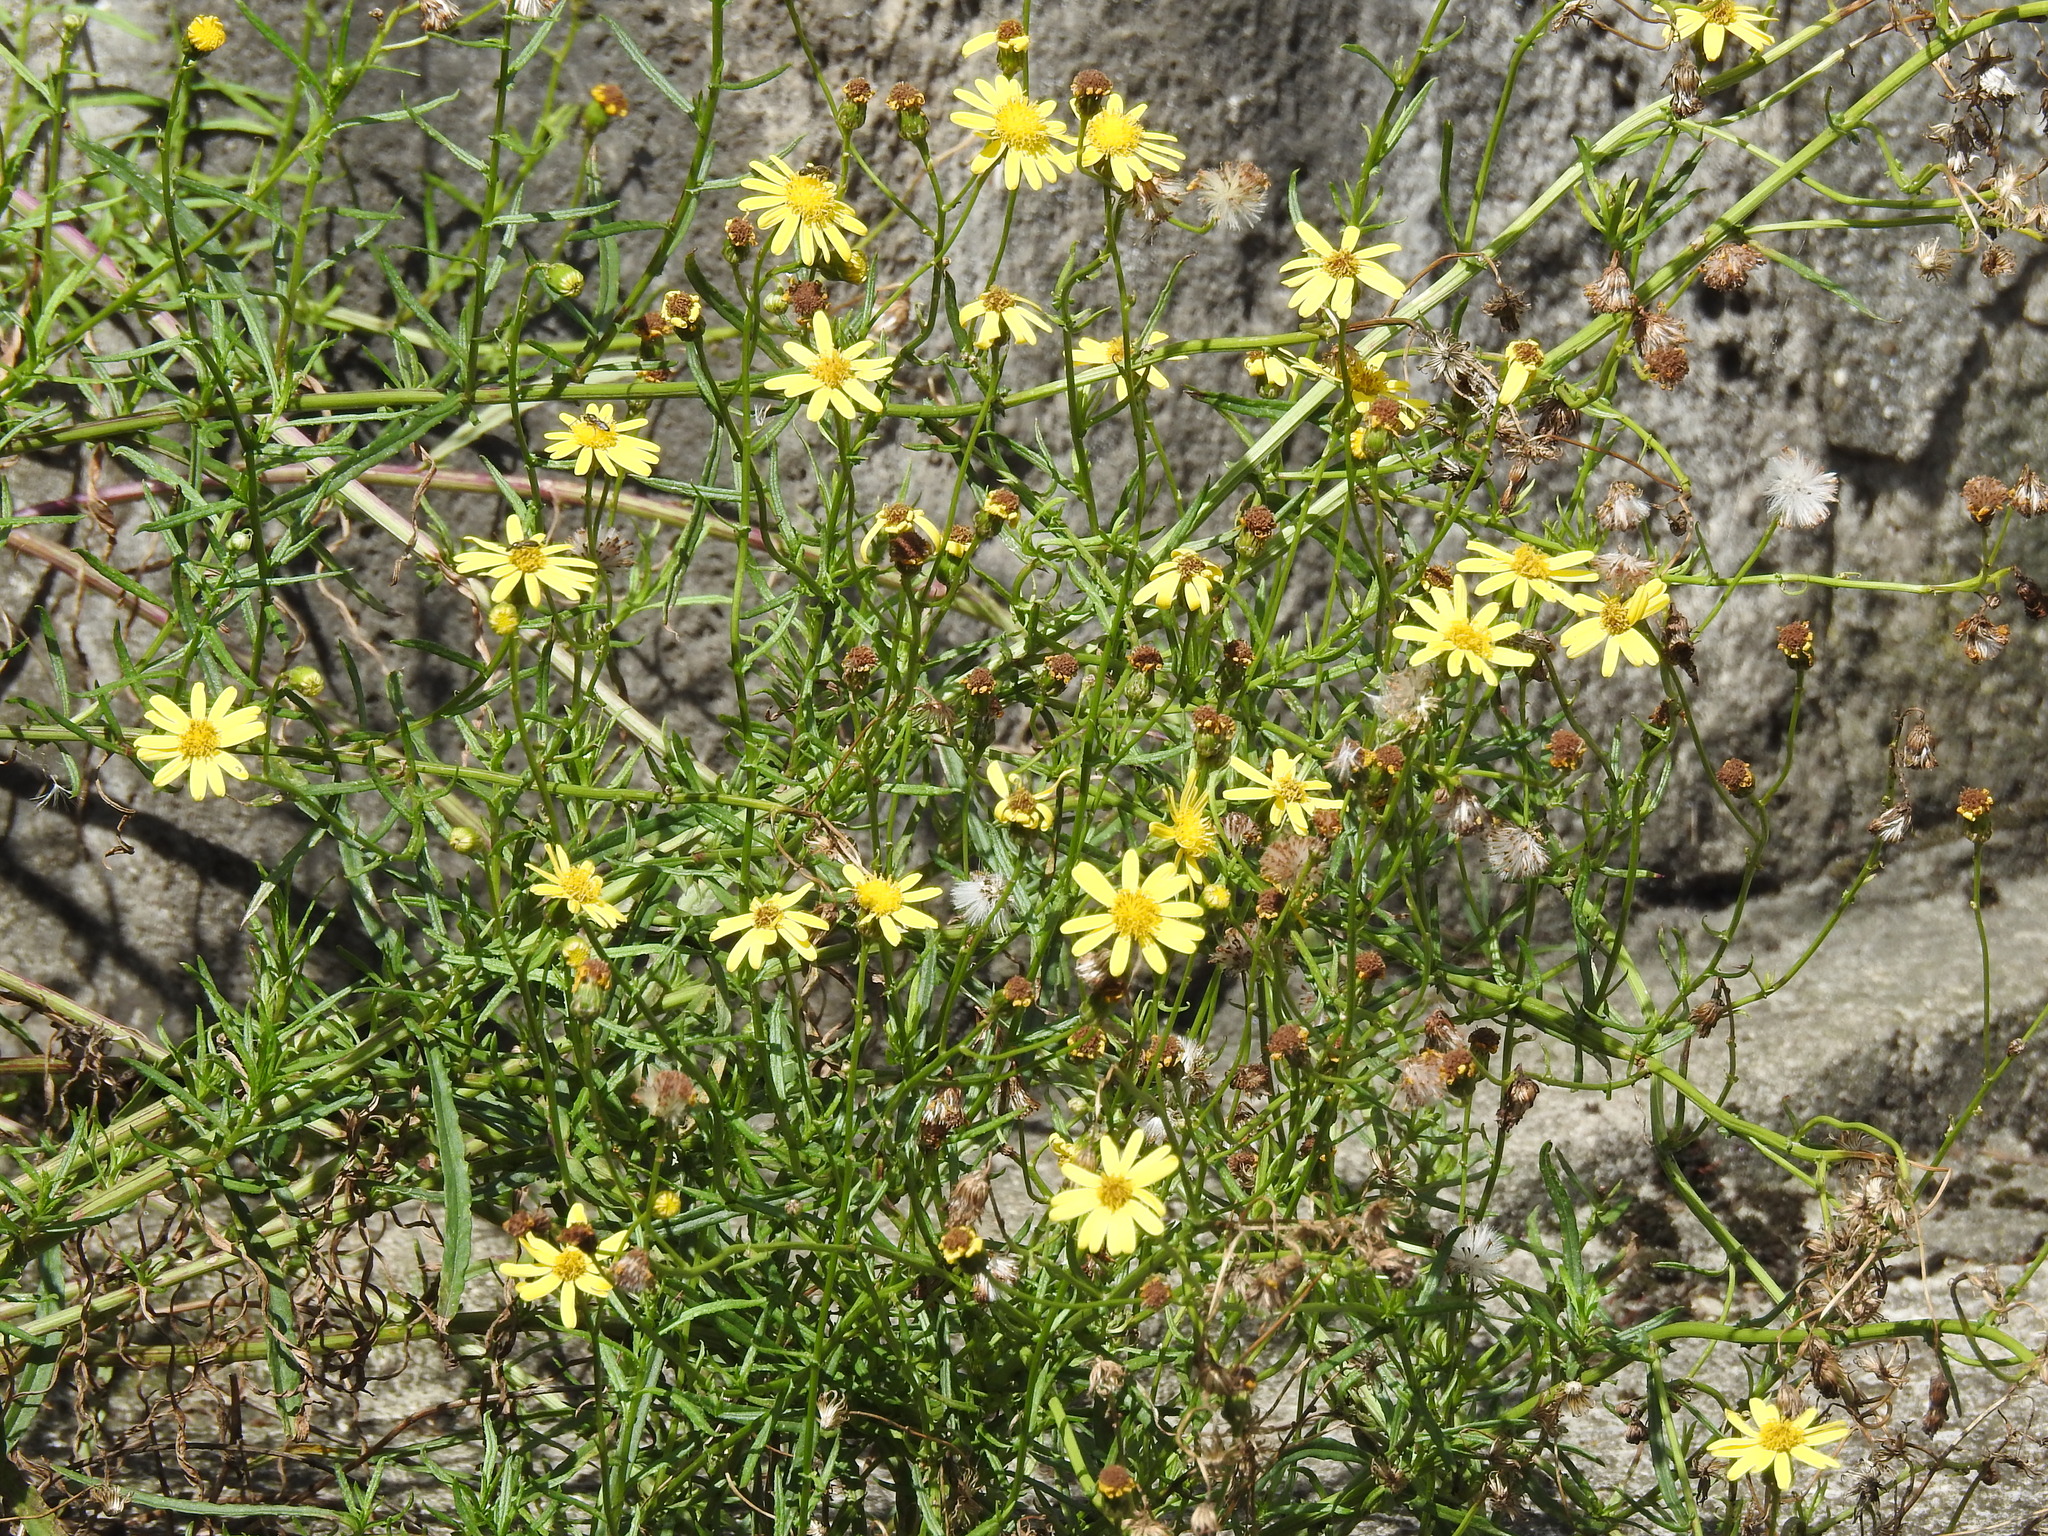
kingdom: Plantae
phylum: Tracheophyta
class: Magnoliopsida
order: Asterales
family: Asteraceae
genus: Senecio
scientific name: Senecio inaequidens
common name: Narrow-leaved ragwort
